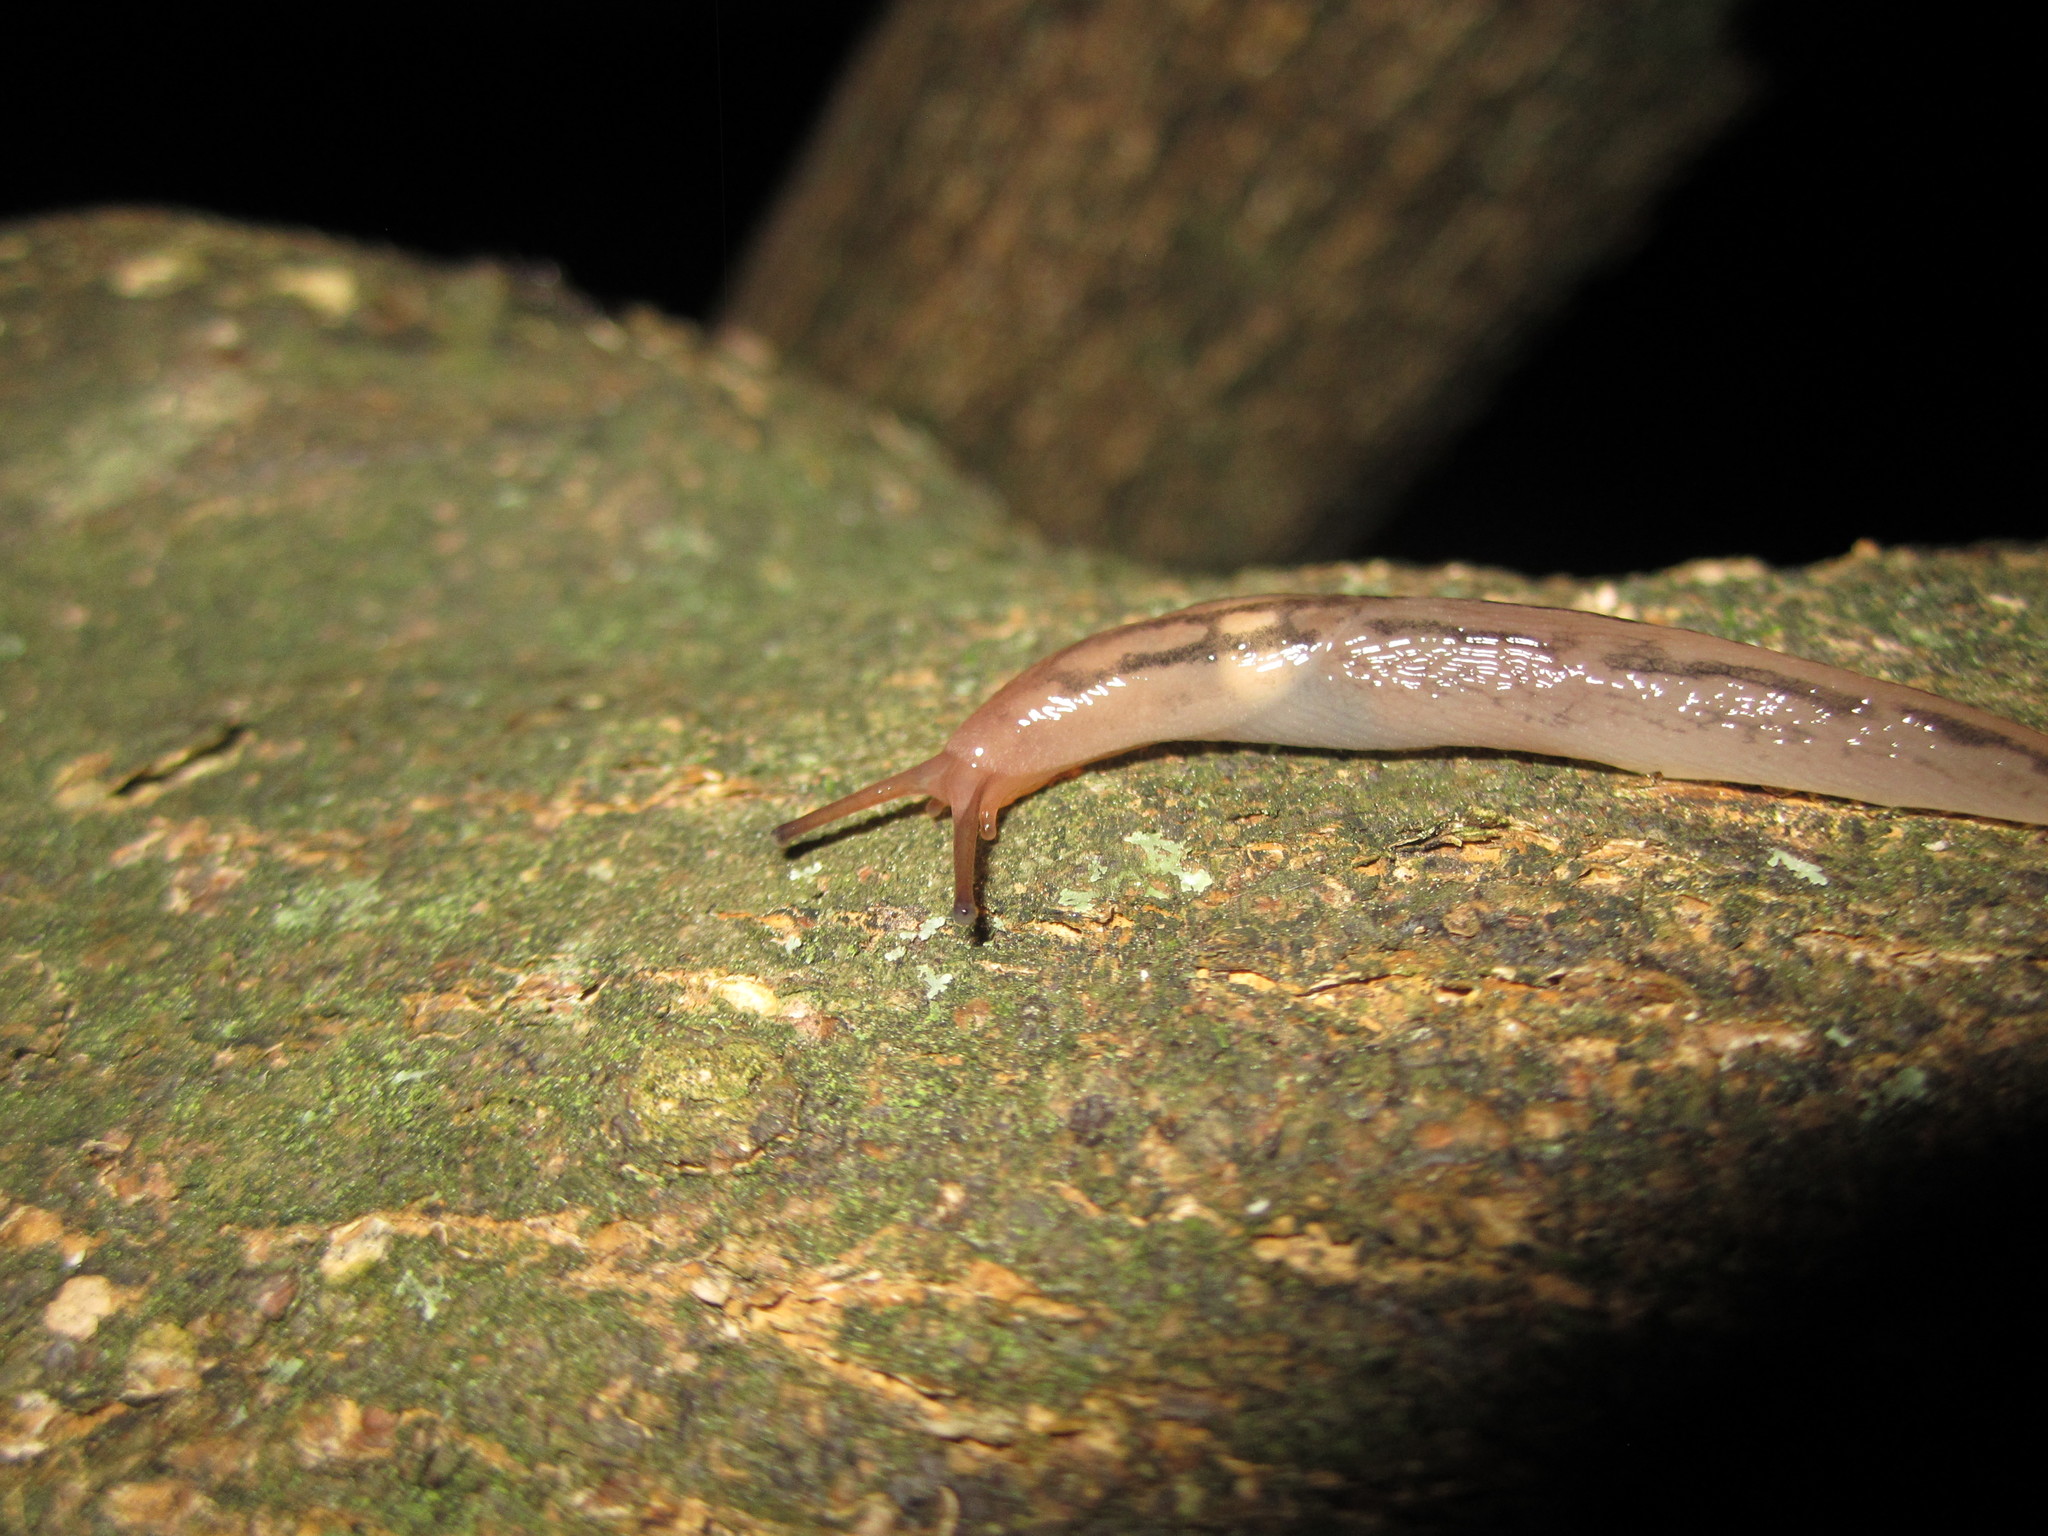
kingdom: Animalia
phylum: Mollusca
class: Gastropoda
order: Stylommatophora
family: Limacidae
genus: Ambigolimax
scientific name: Ambigolimax
